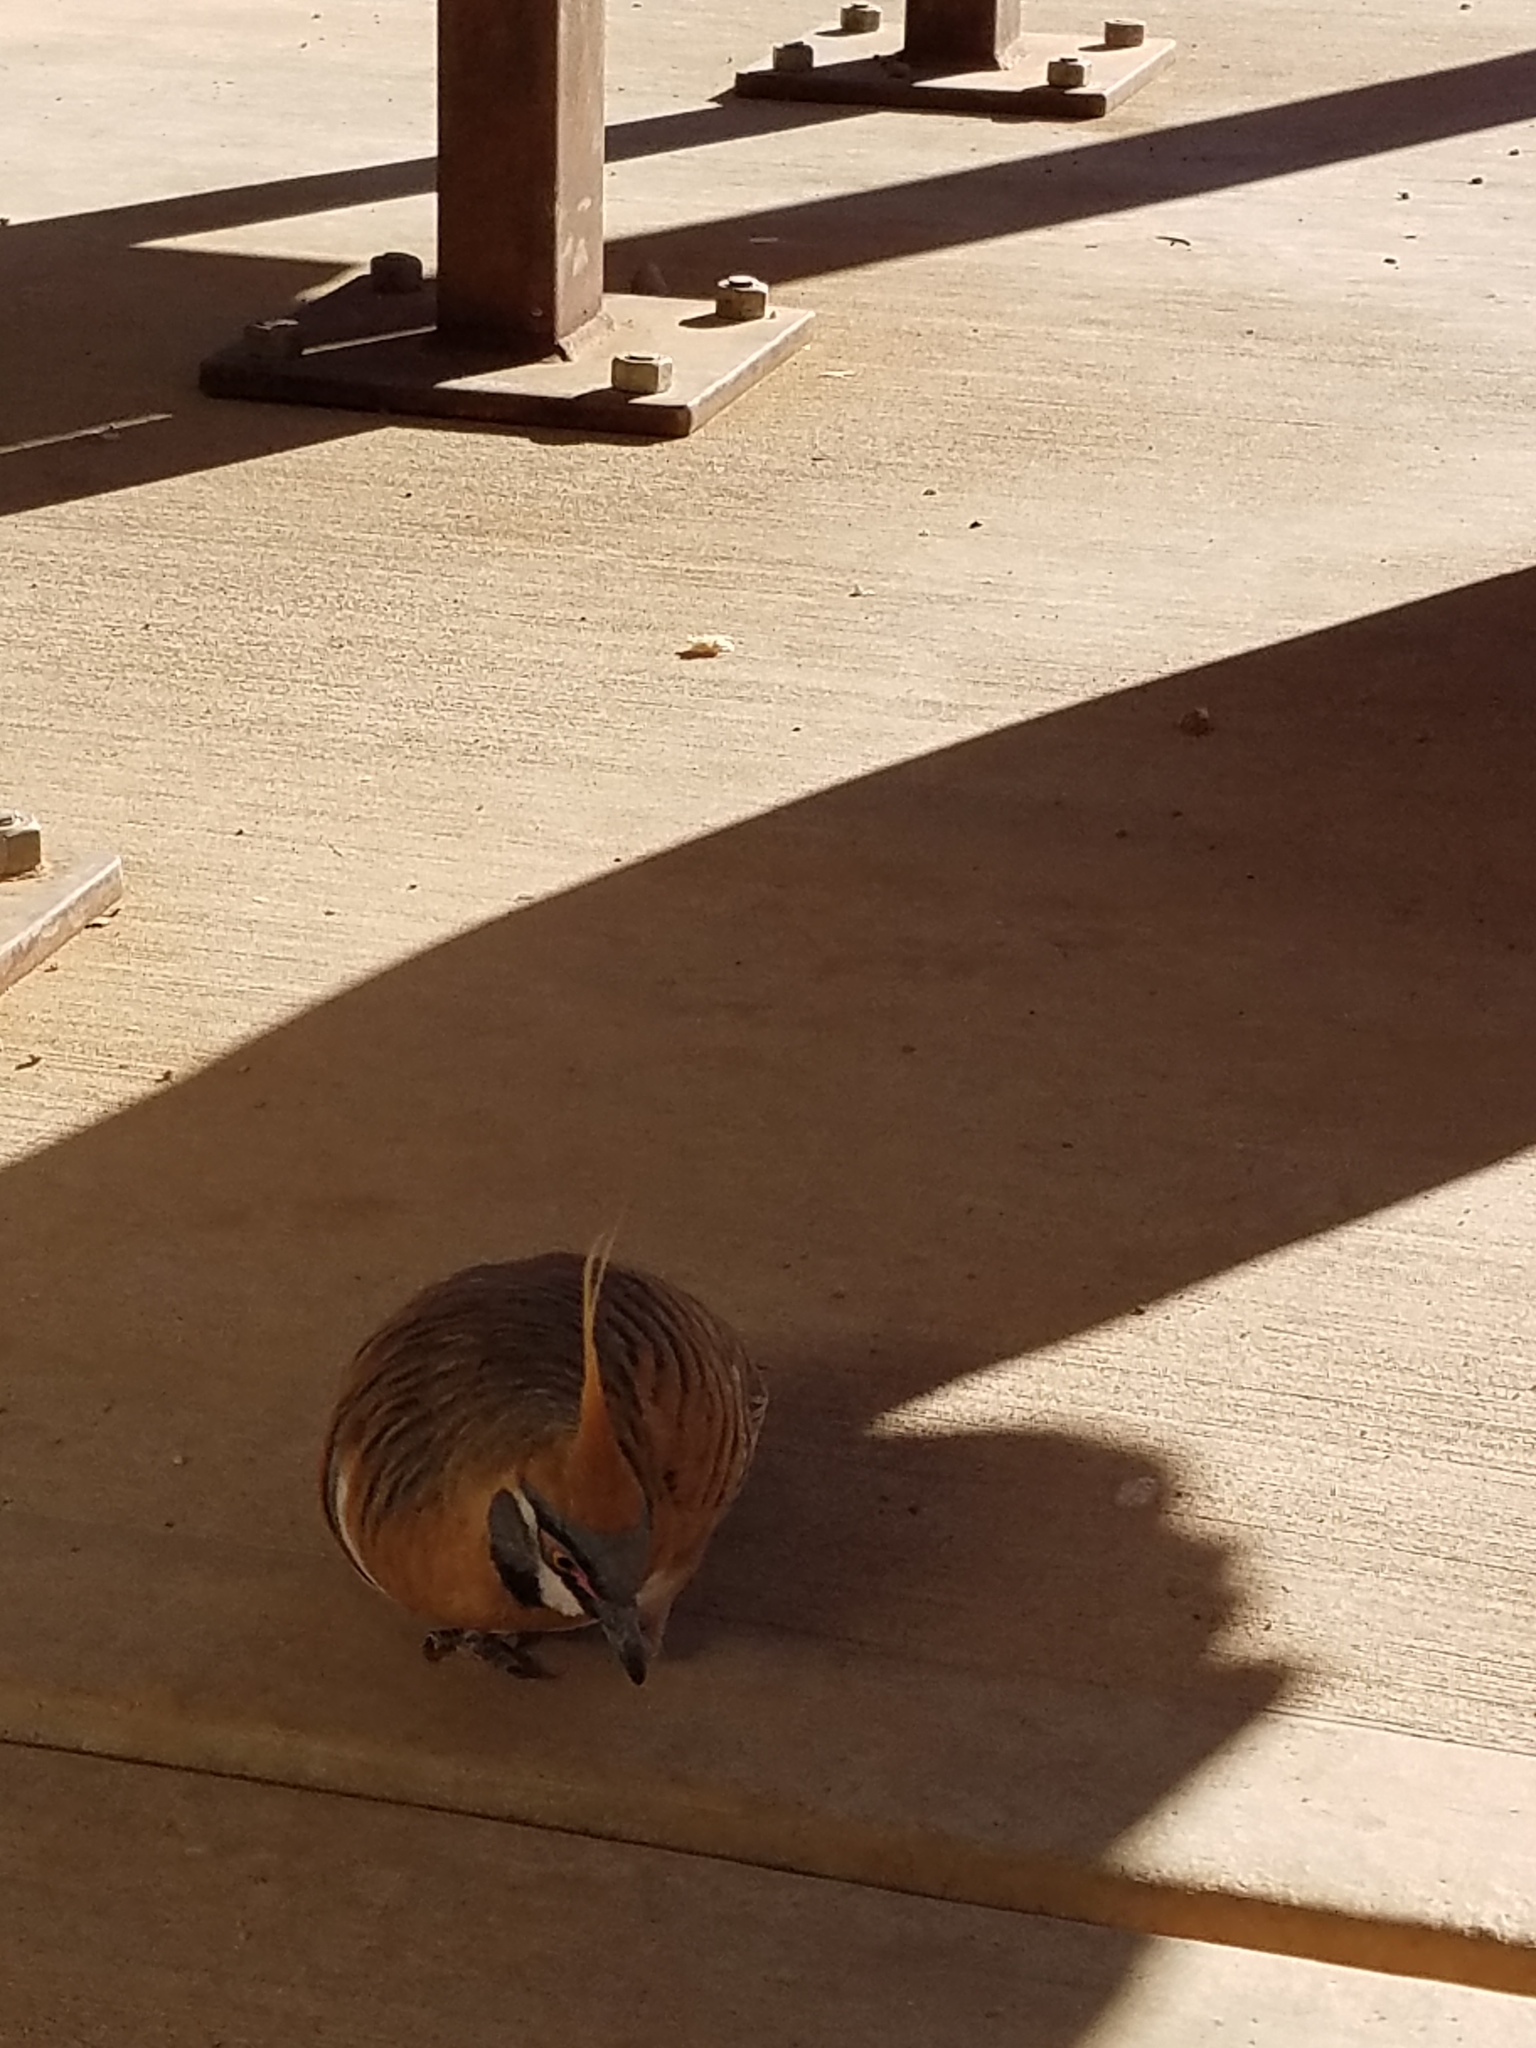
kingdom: Animalia
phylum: Chordata
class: Aves
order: Columbiformes
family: Columbidae
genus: Geophaps
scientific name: Geophaps plumifera
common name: Spinifex pigeon
